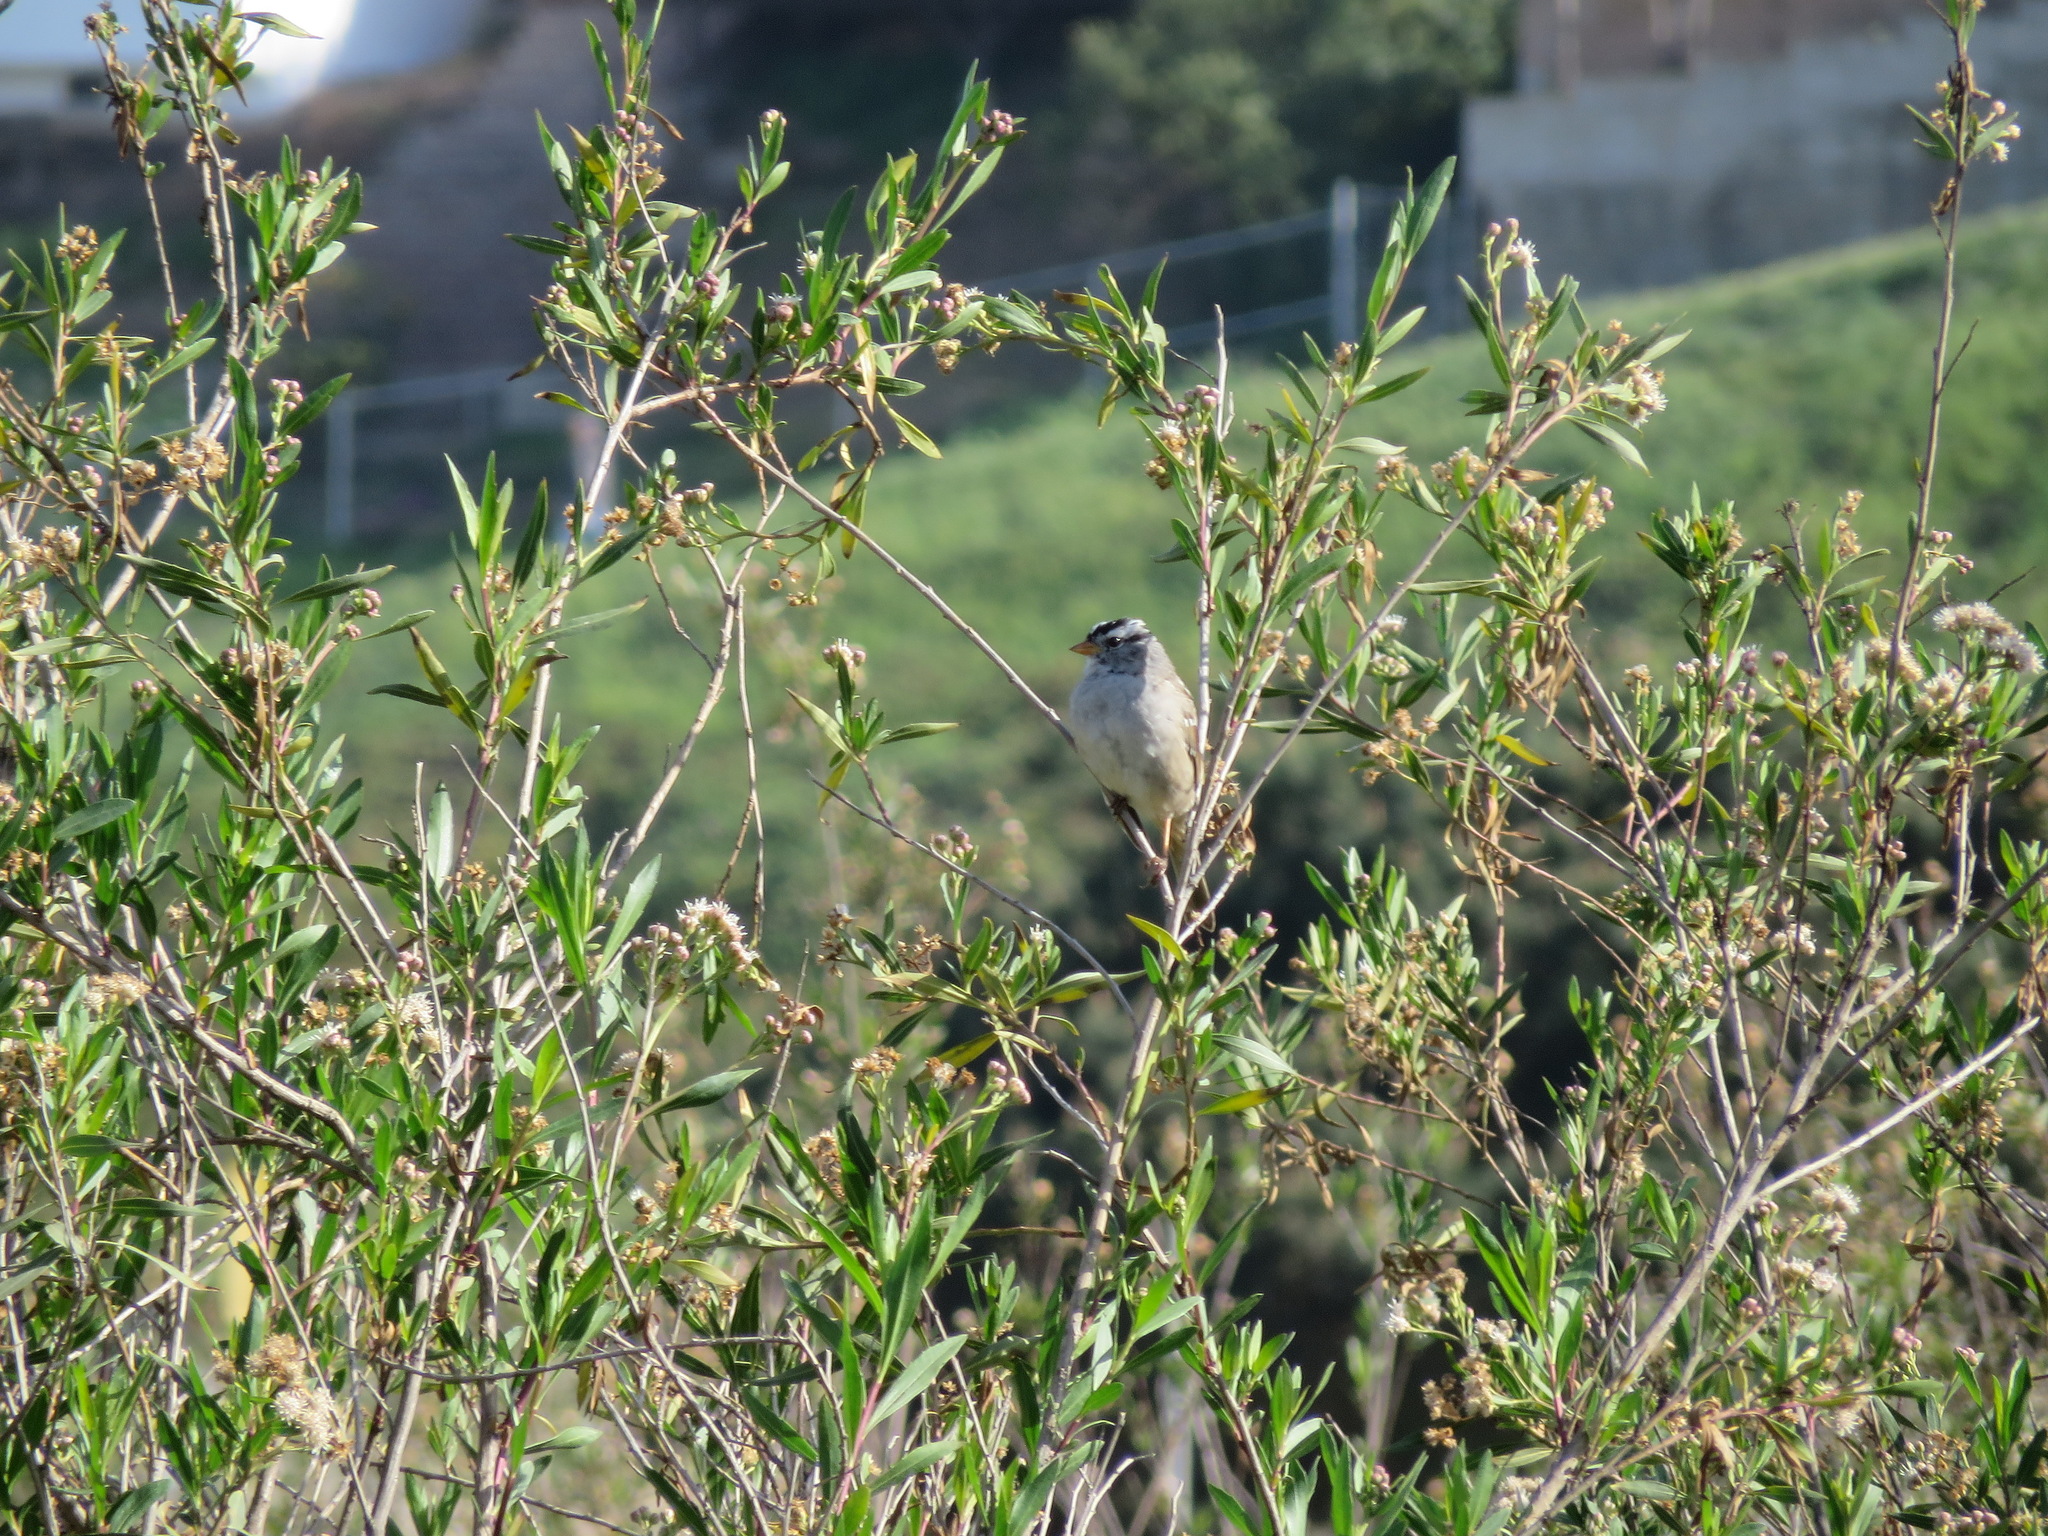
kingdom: Animalia
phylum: Chordata
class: Aves
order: Passeriformes
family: Passerellidae
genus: Zonotrichia
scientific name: Zonotrichia leucophrys
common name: White-crowned sparrow
